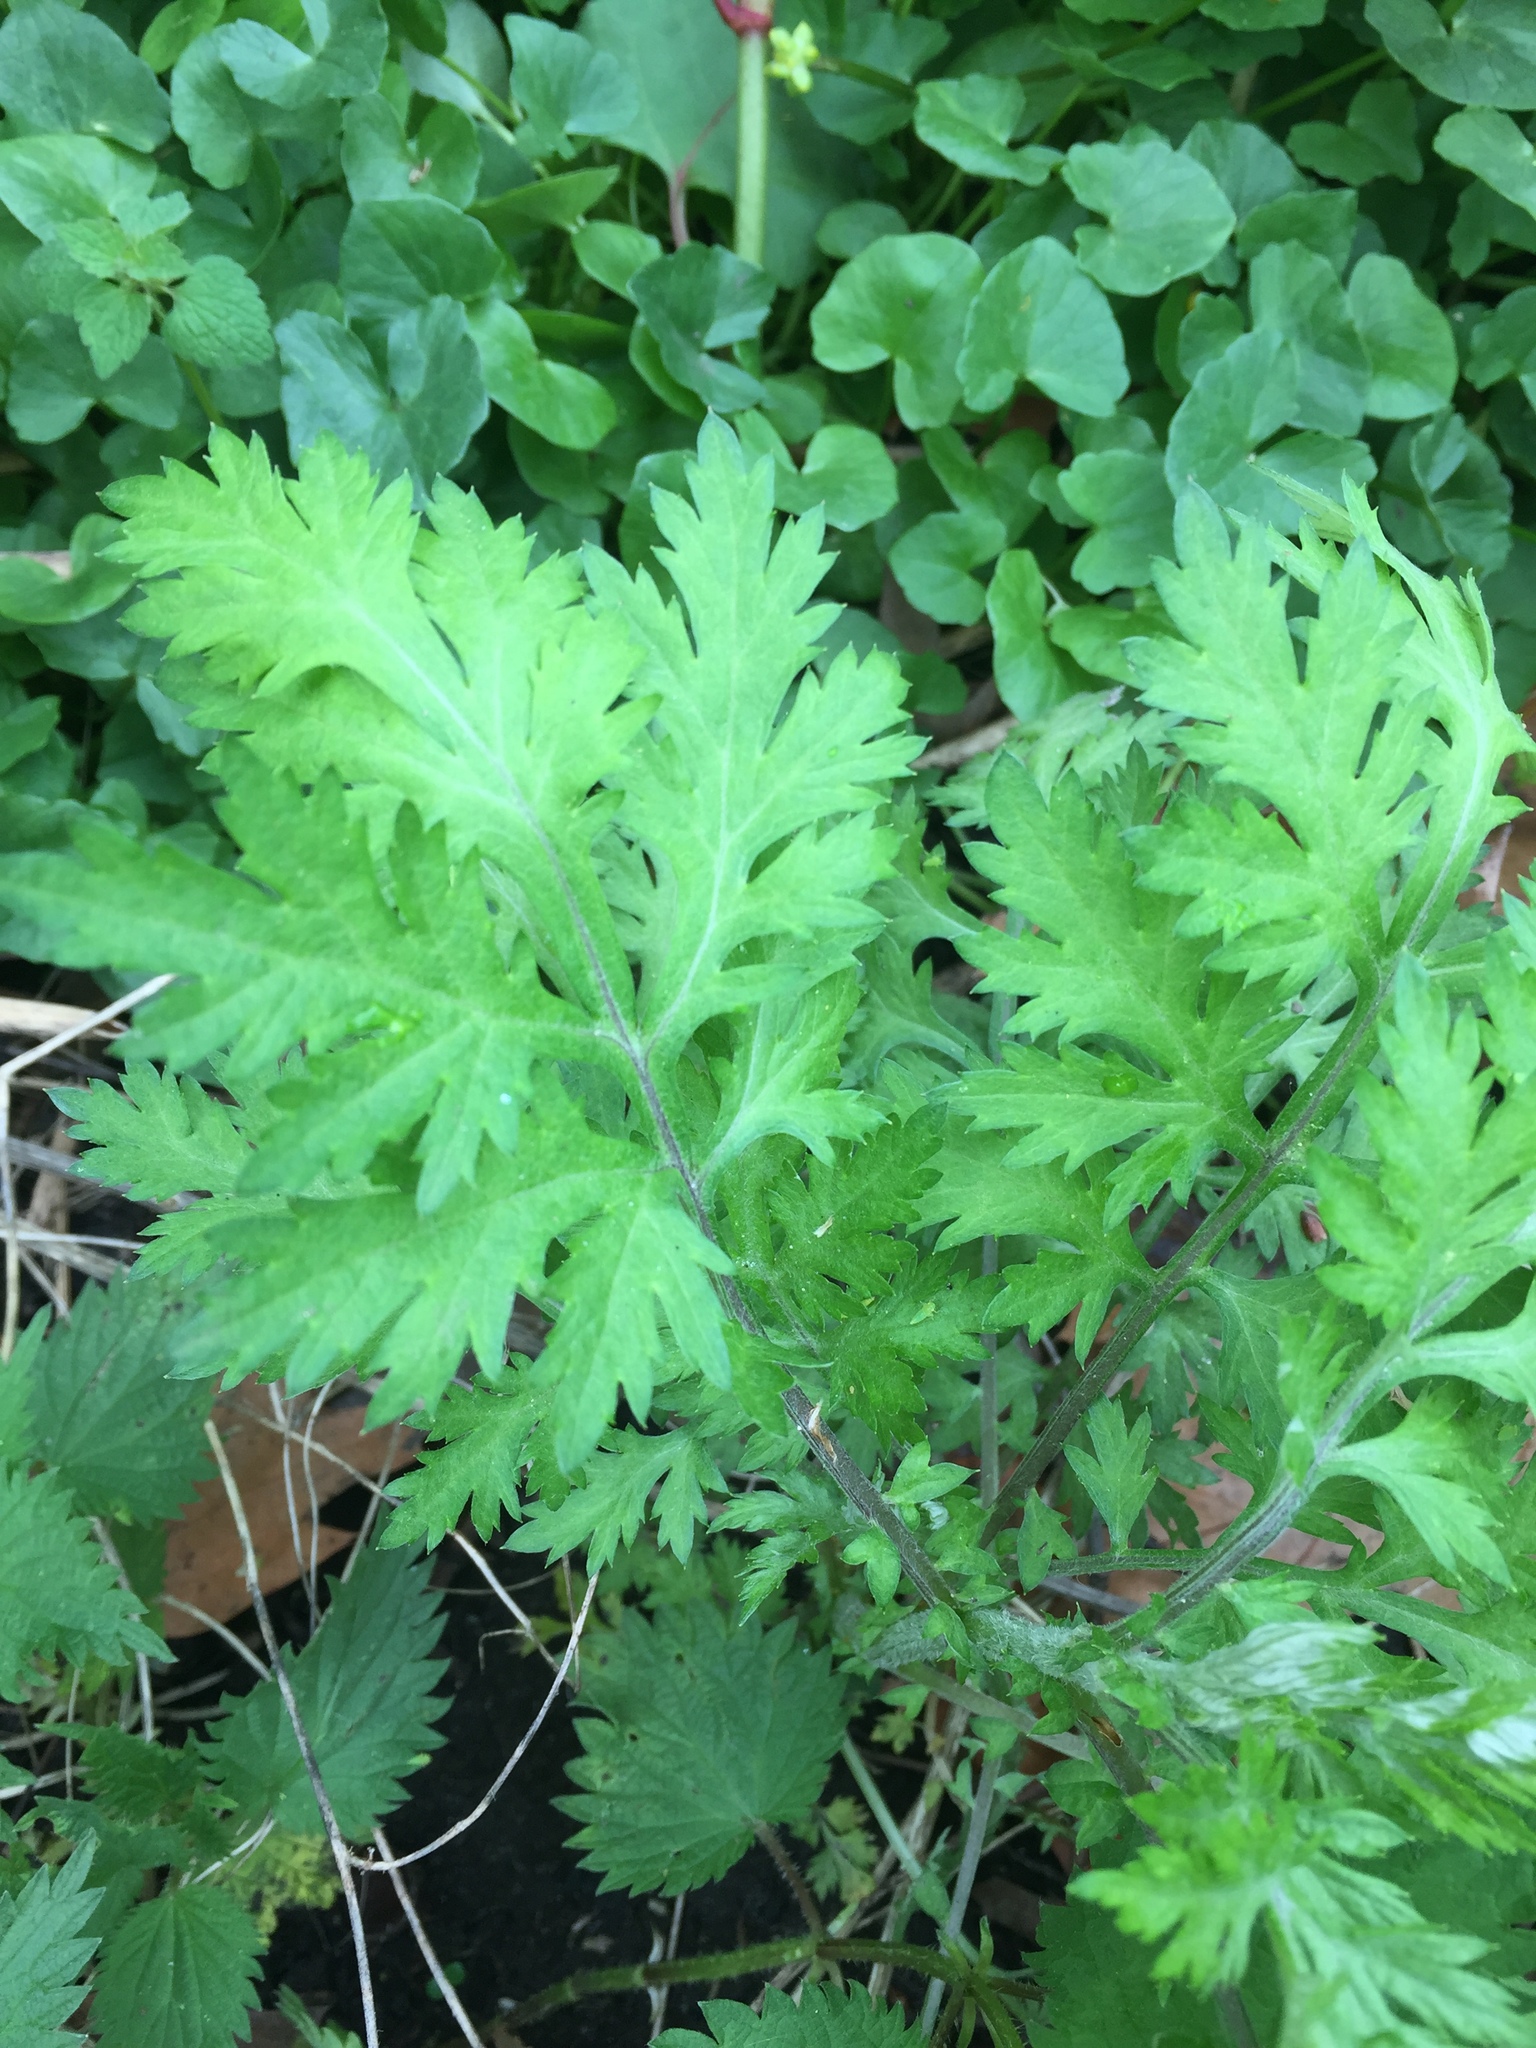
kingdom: Plantae
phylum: Tracheophyta
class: Magnoliopsida
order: Asterales
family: Asteraceae
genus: Artemisia
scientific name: Artemisia vulgaris
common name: Mugwort
